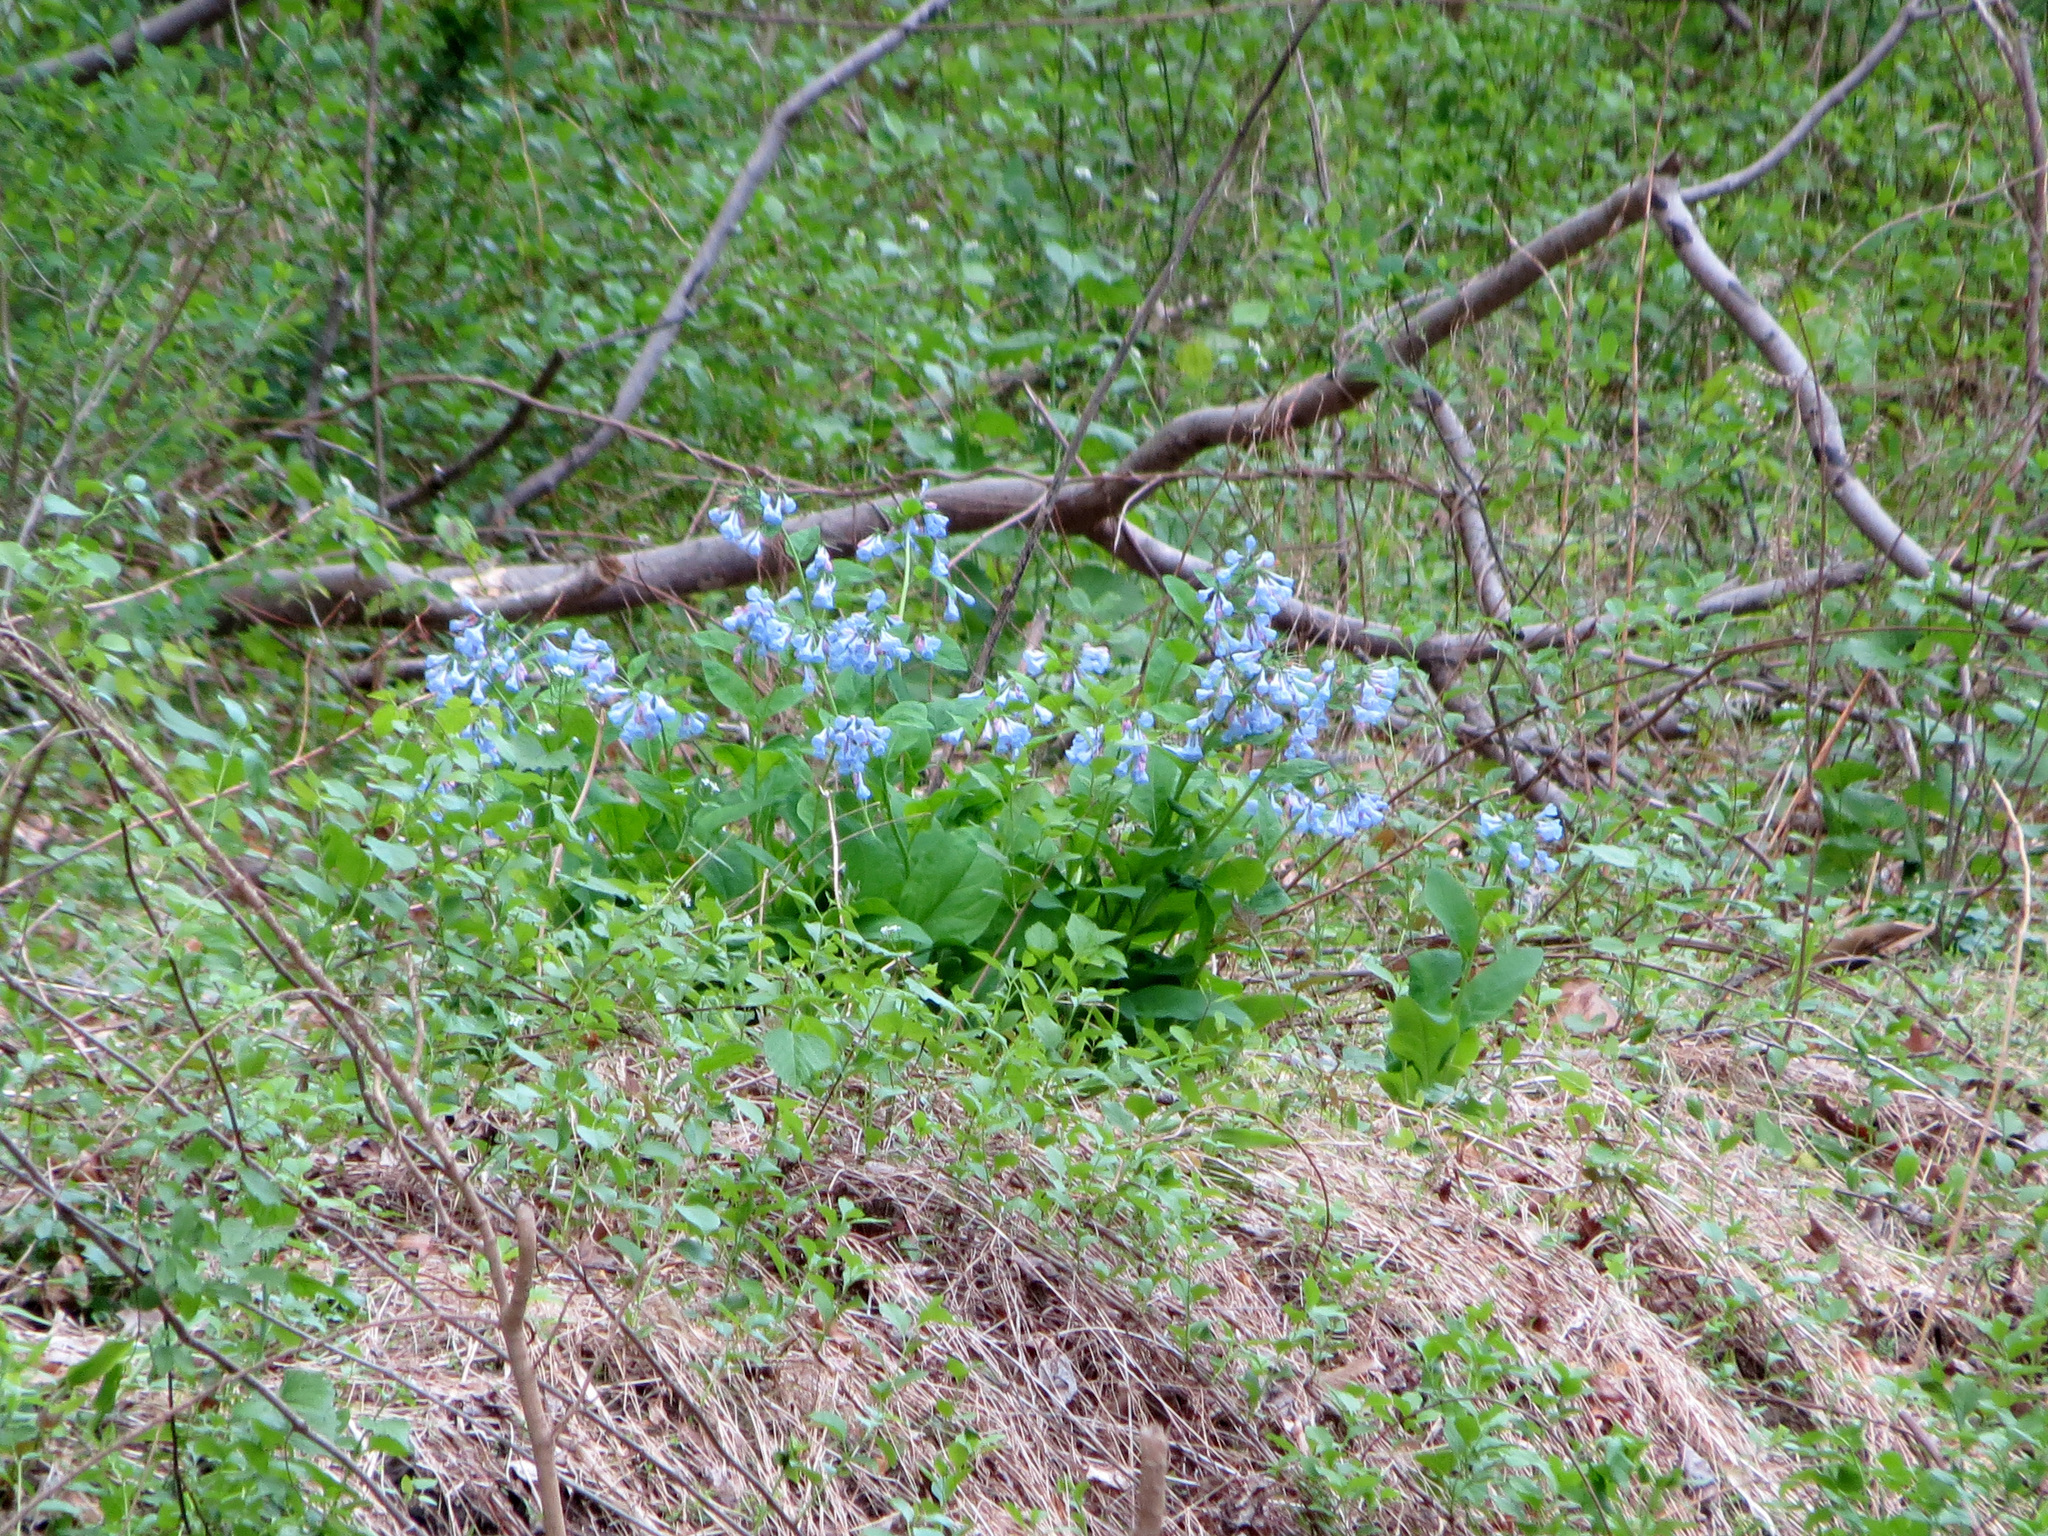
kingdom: Plantae
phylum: Tracheophyta
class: Magnoliopsida
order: Boraginales
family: Boraginaceae
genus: Mertensia
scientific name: Mertensia virginica
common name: Virginia bluebells
